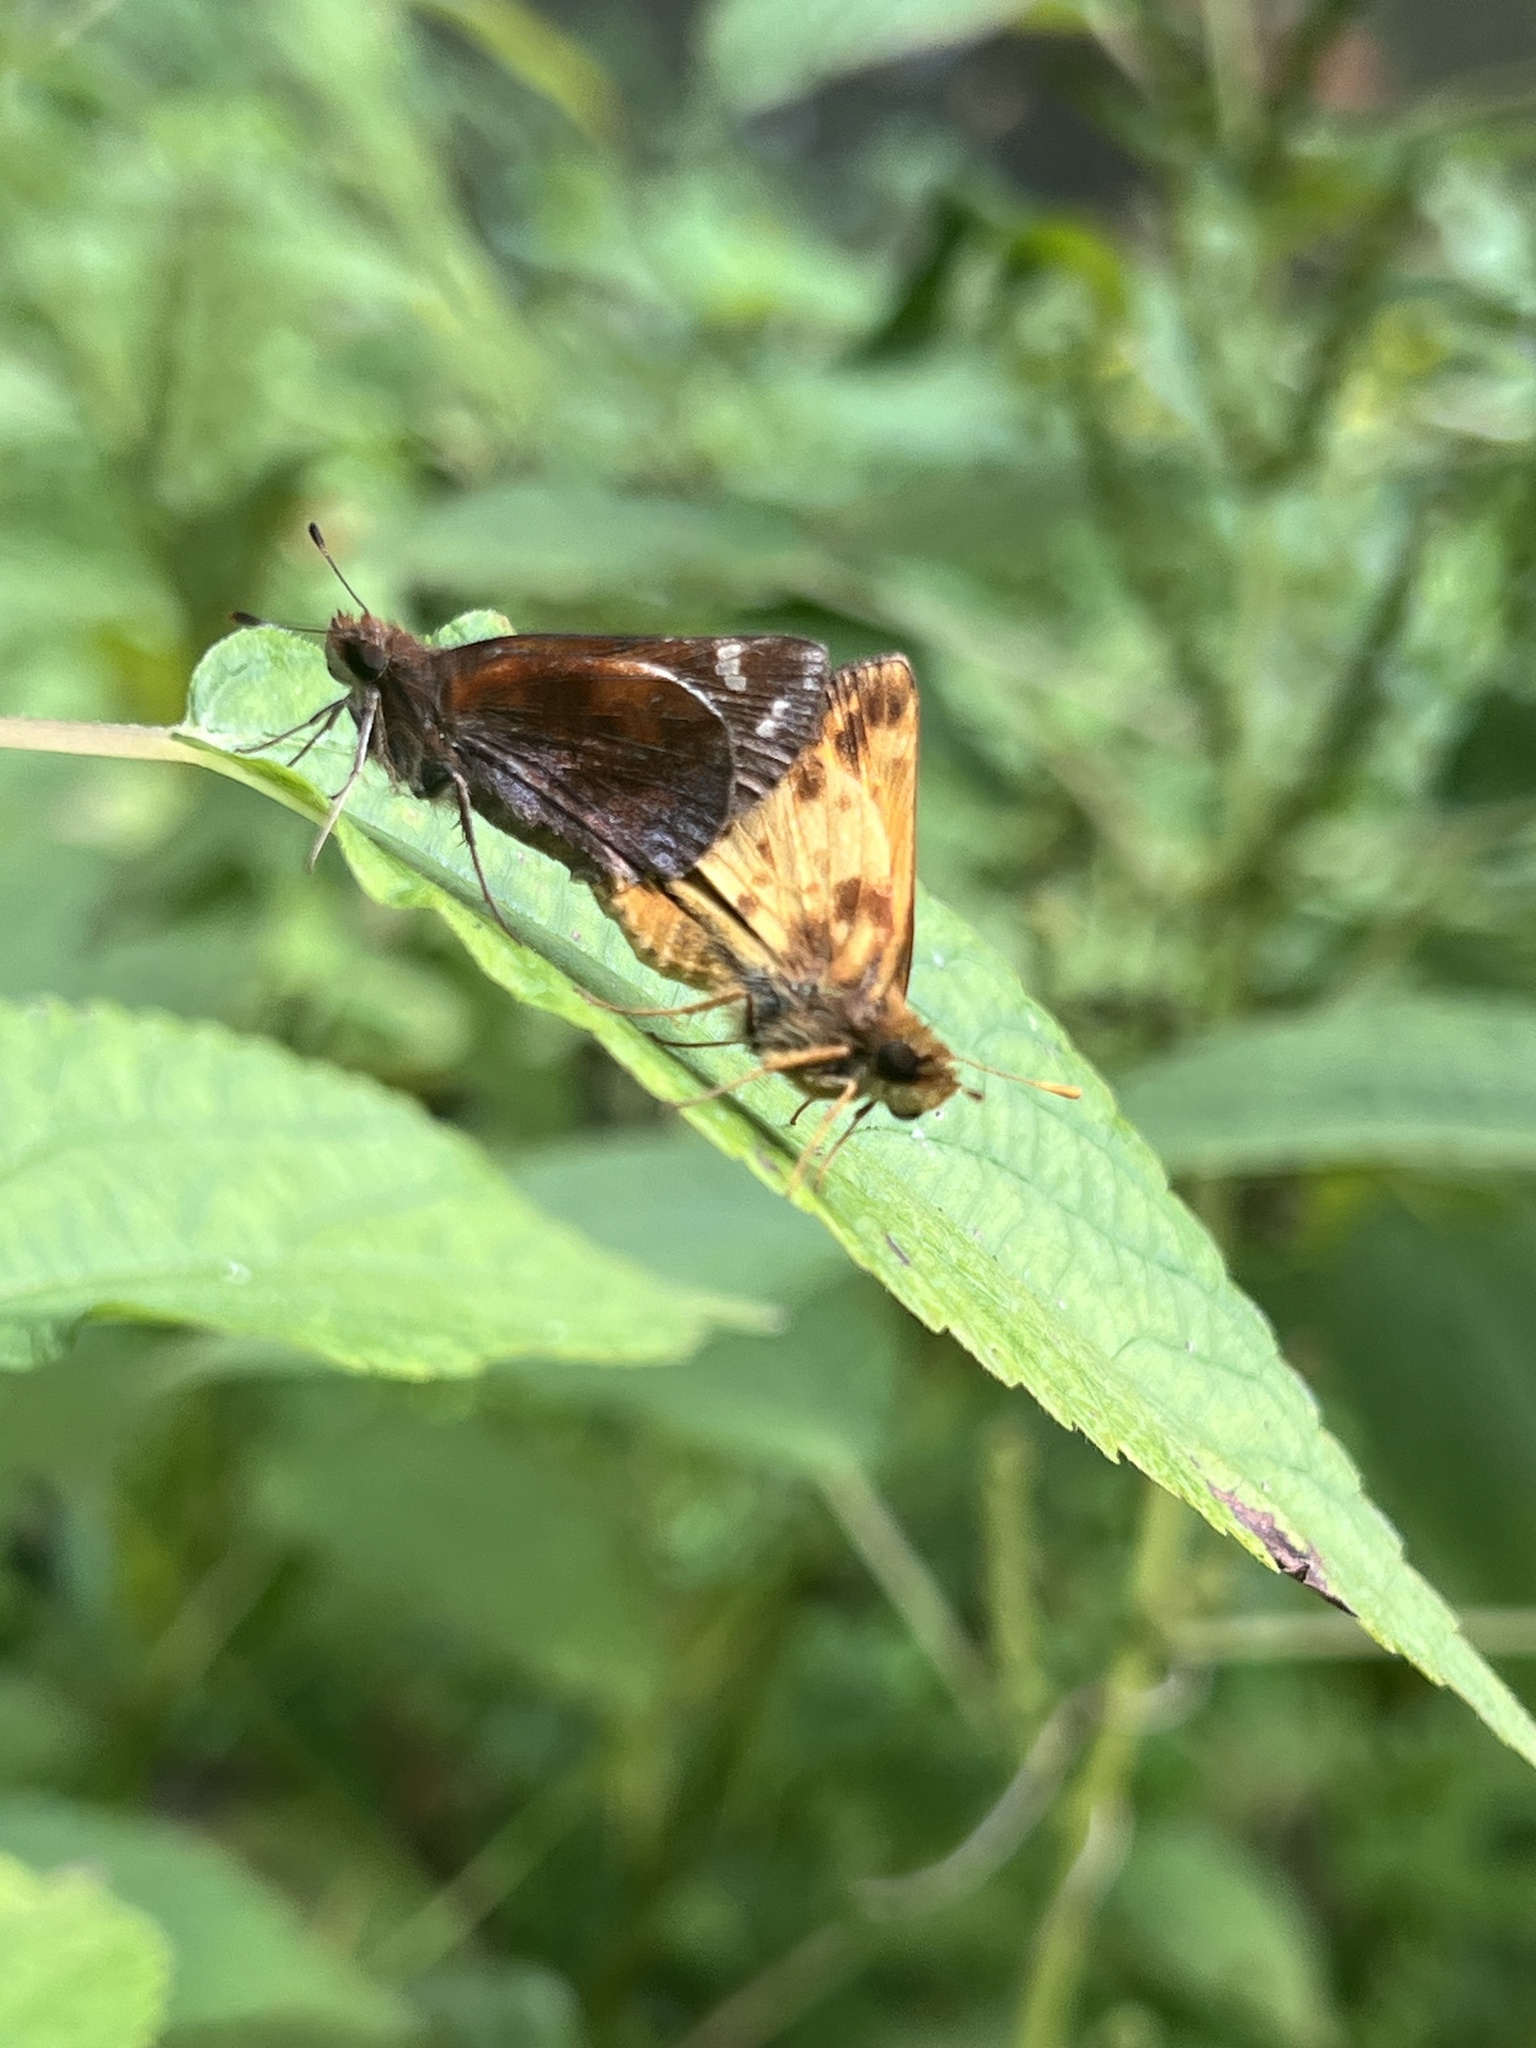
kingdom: Animalia
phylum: Arthropoda
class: Insecta
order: Lepidoptera
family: Hesperiidae
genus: Lon
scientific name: Lon zabulon
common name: Zabulon skipper
